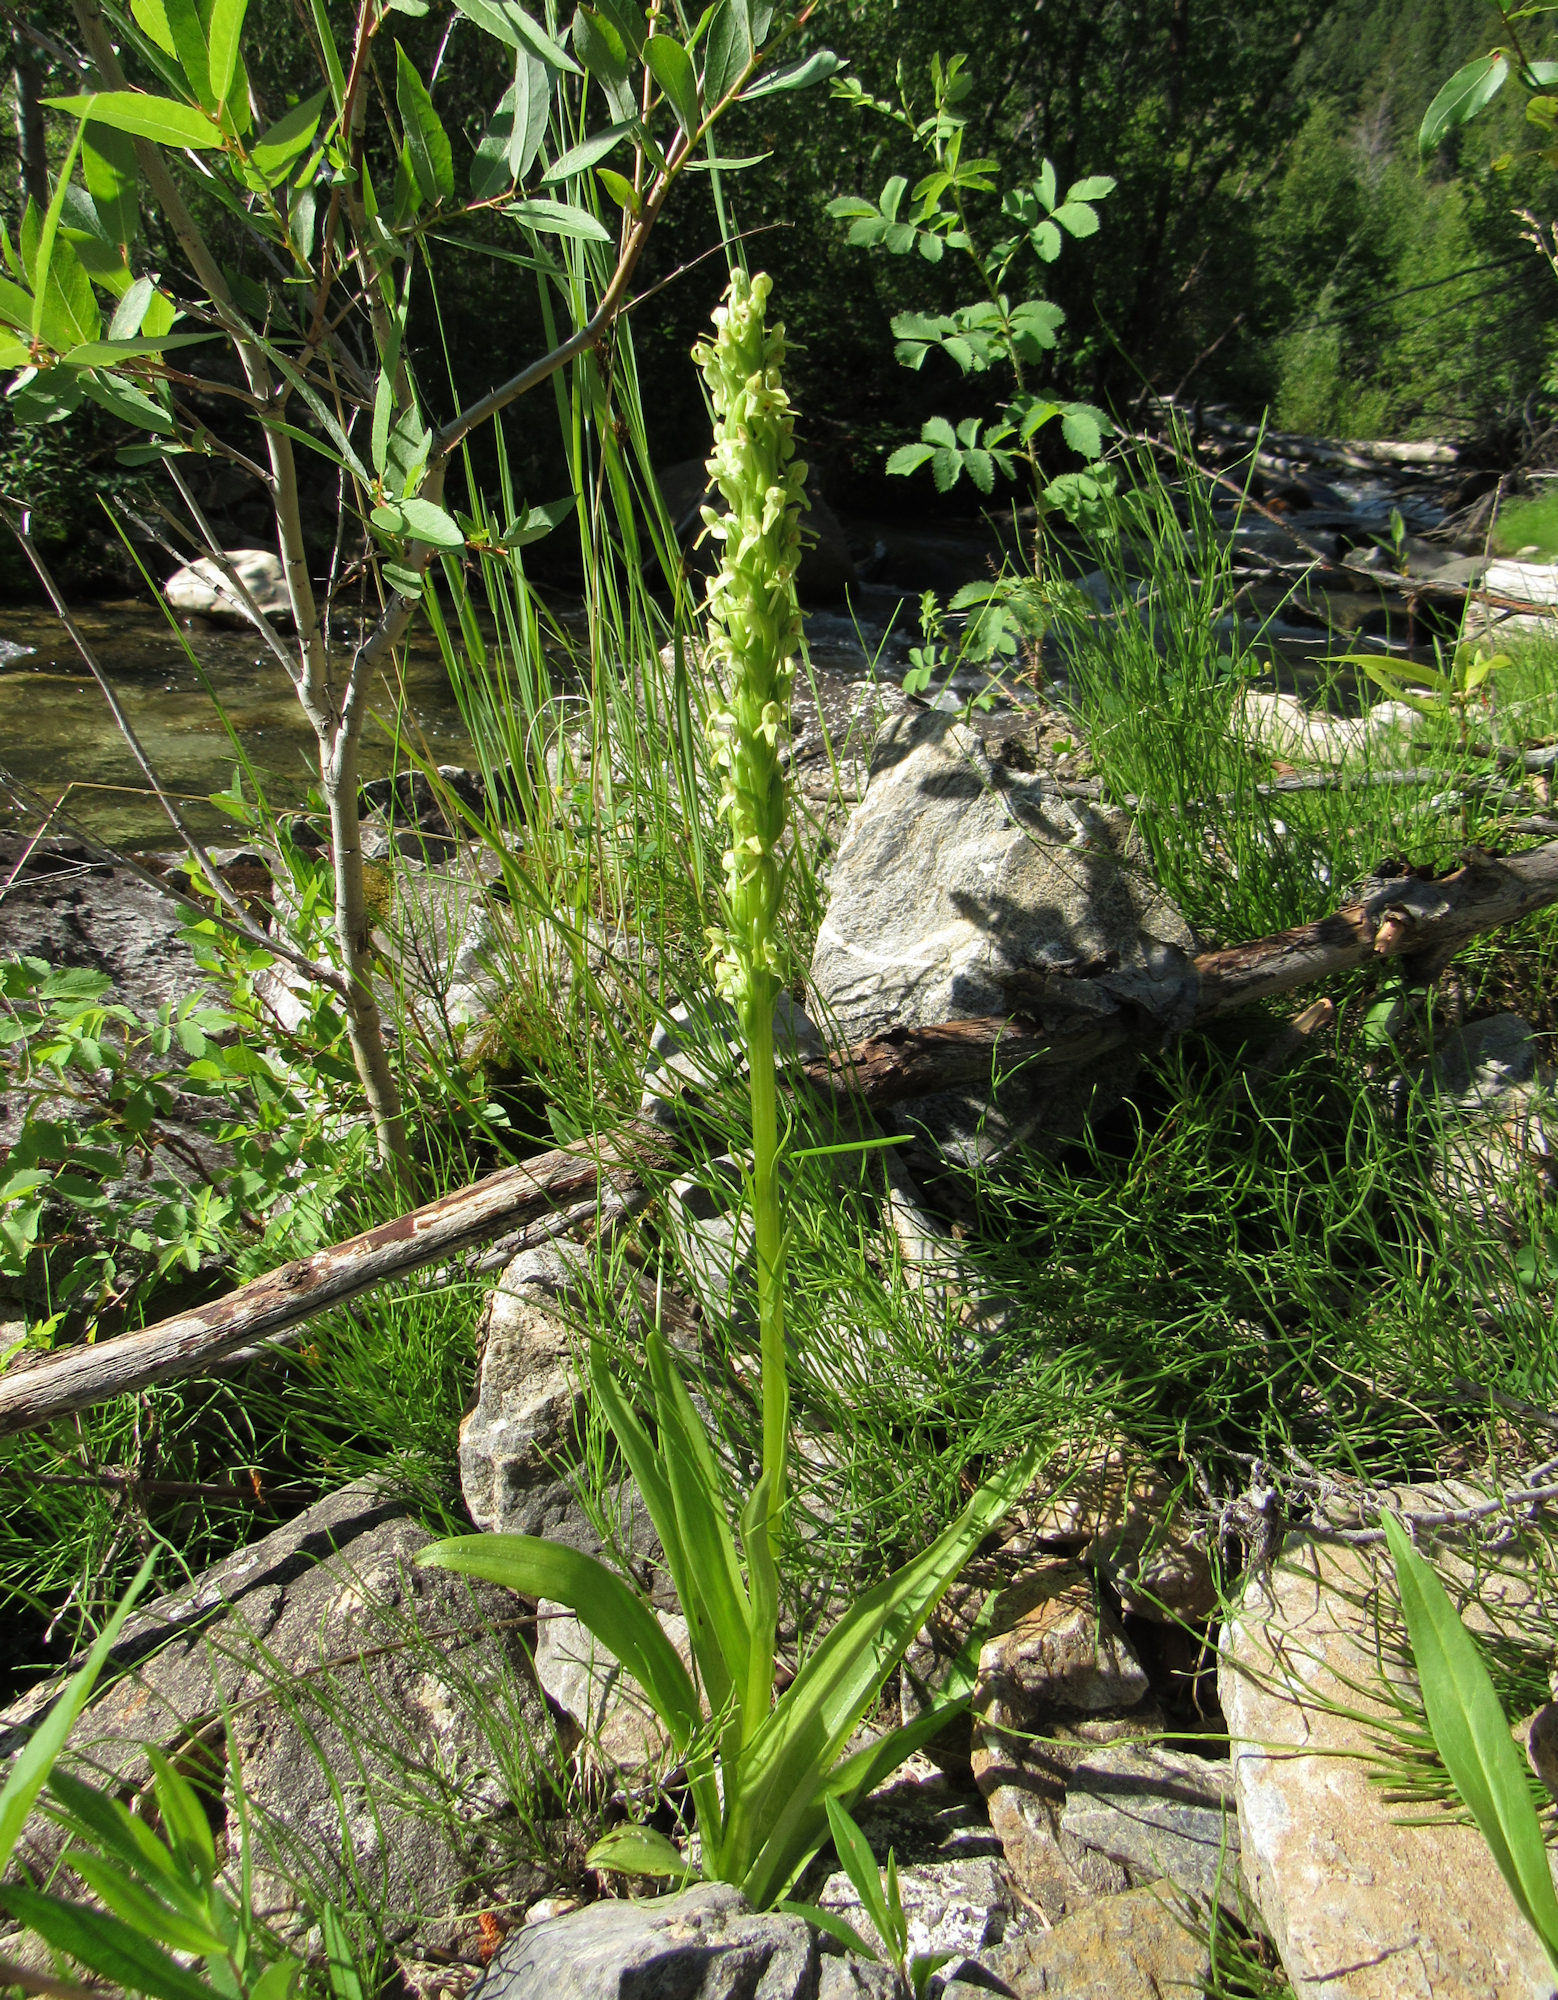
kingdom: Plantae
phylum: Tracheophyta
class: Liliopsida
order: Asparagales
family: Orchidaceae
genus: Platanthera
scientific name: Platanthera huronensis
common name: Fragrant green orchid
